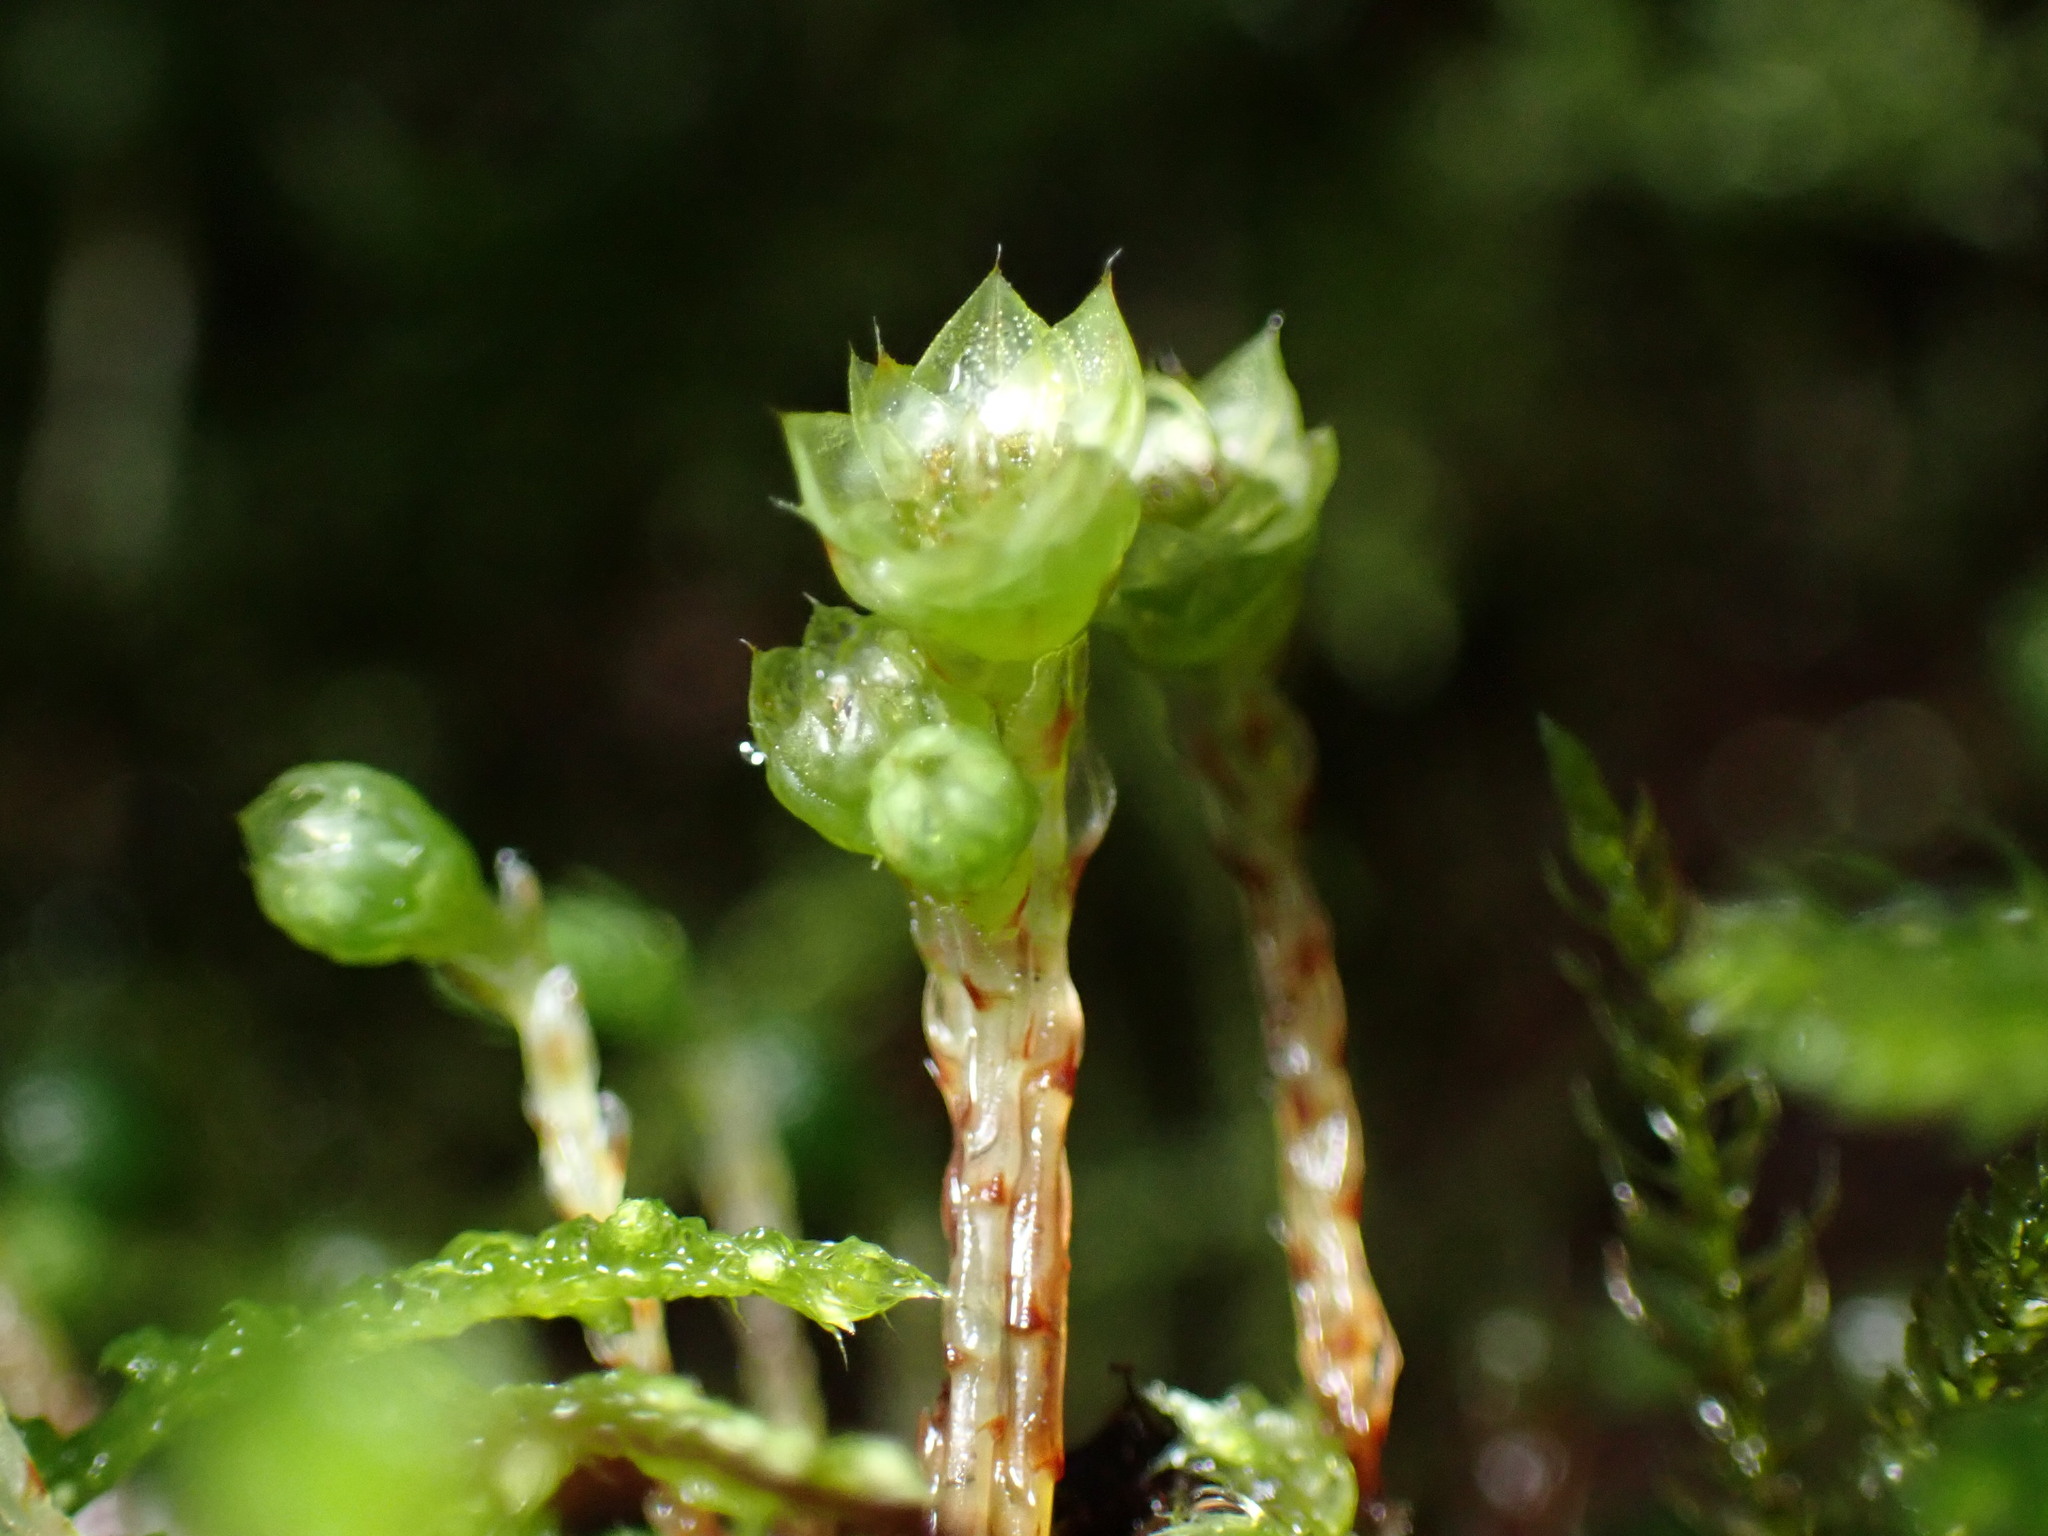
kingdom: Plantae
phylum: Bryophyta
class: Bryopsida
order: Bryales
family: Mniaceae
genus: Leucolepis
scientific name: Leucolepis acanthoneura
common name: Leucolepis umbrella moss
